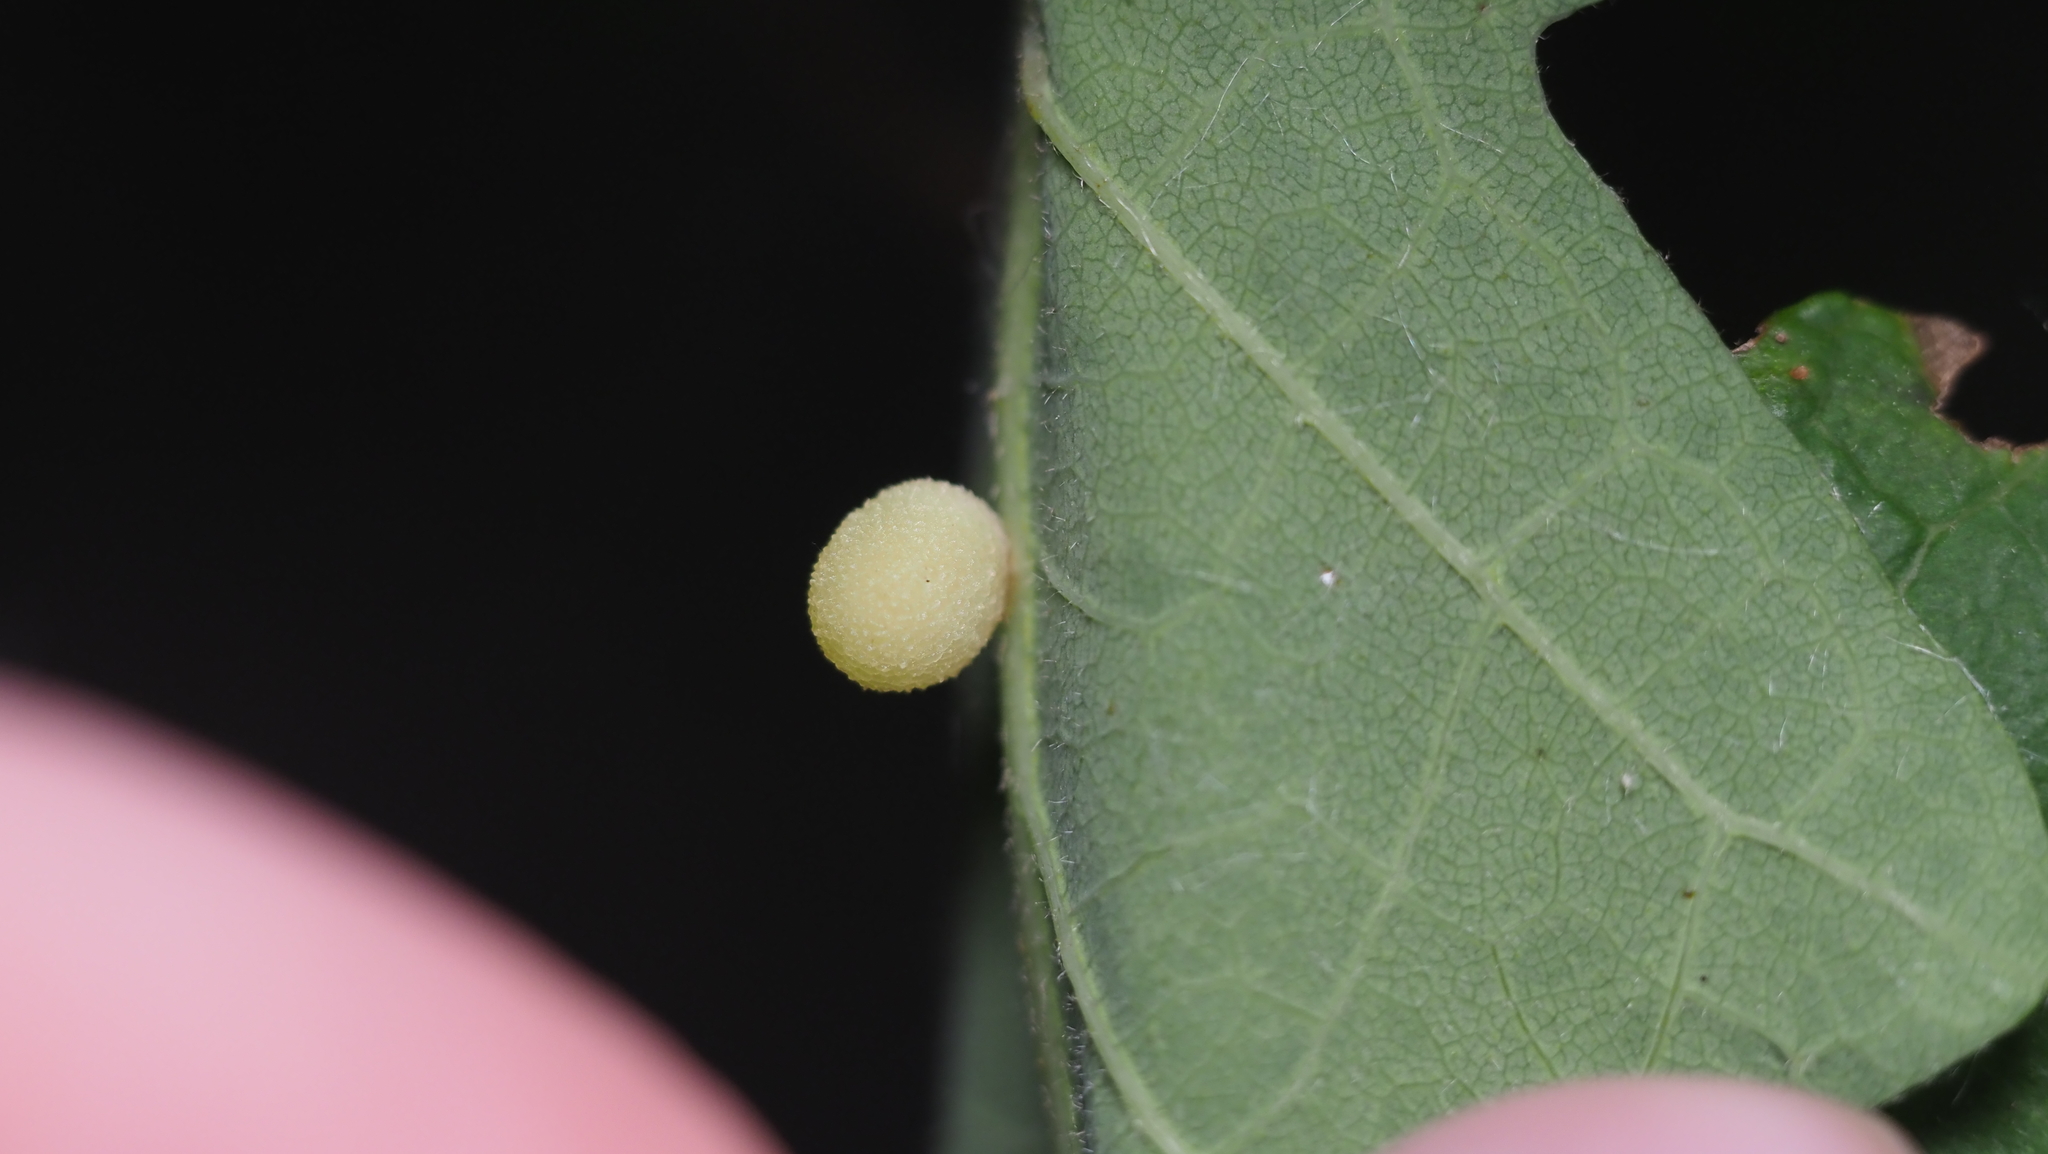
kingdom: Animalia
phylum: Arthropoda
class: Insecta
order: Hymenoptera
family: Cynipidae
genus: Acraspis
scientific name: Acraspis quercushirta
